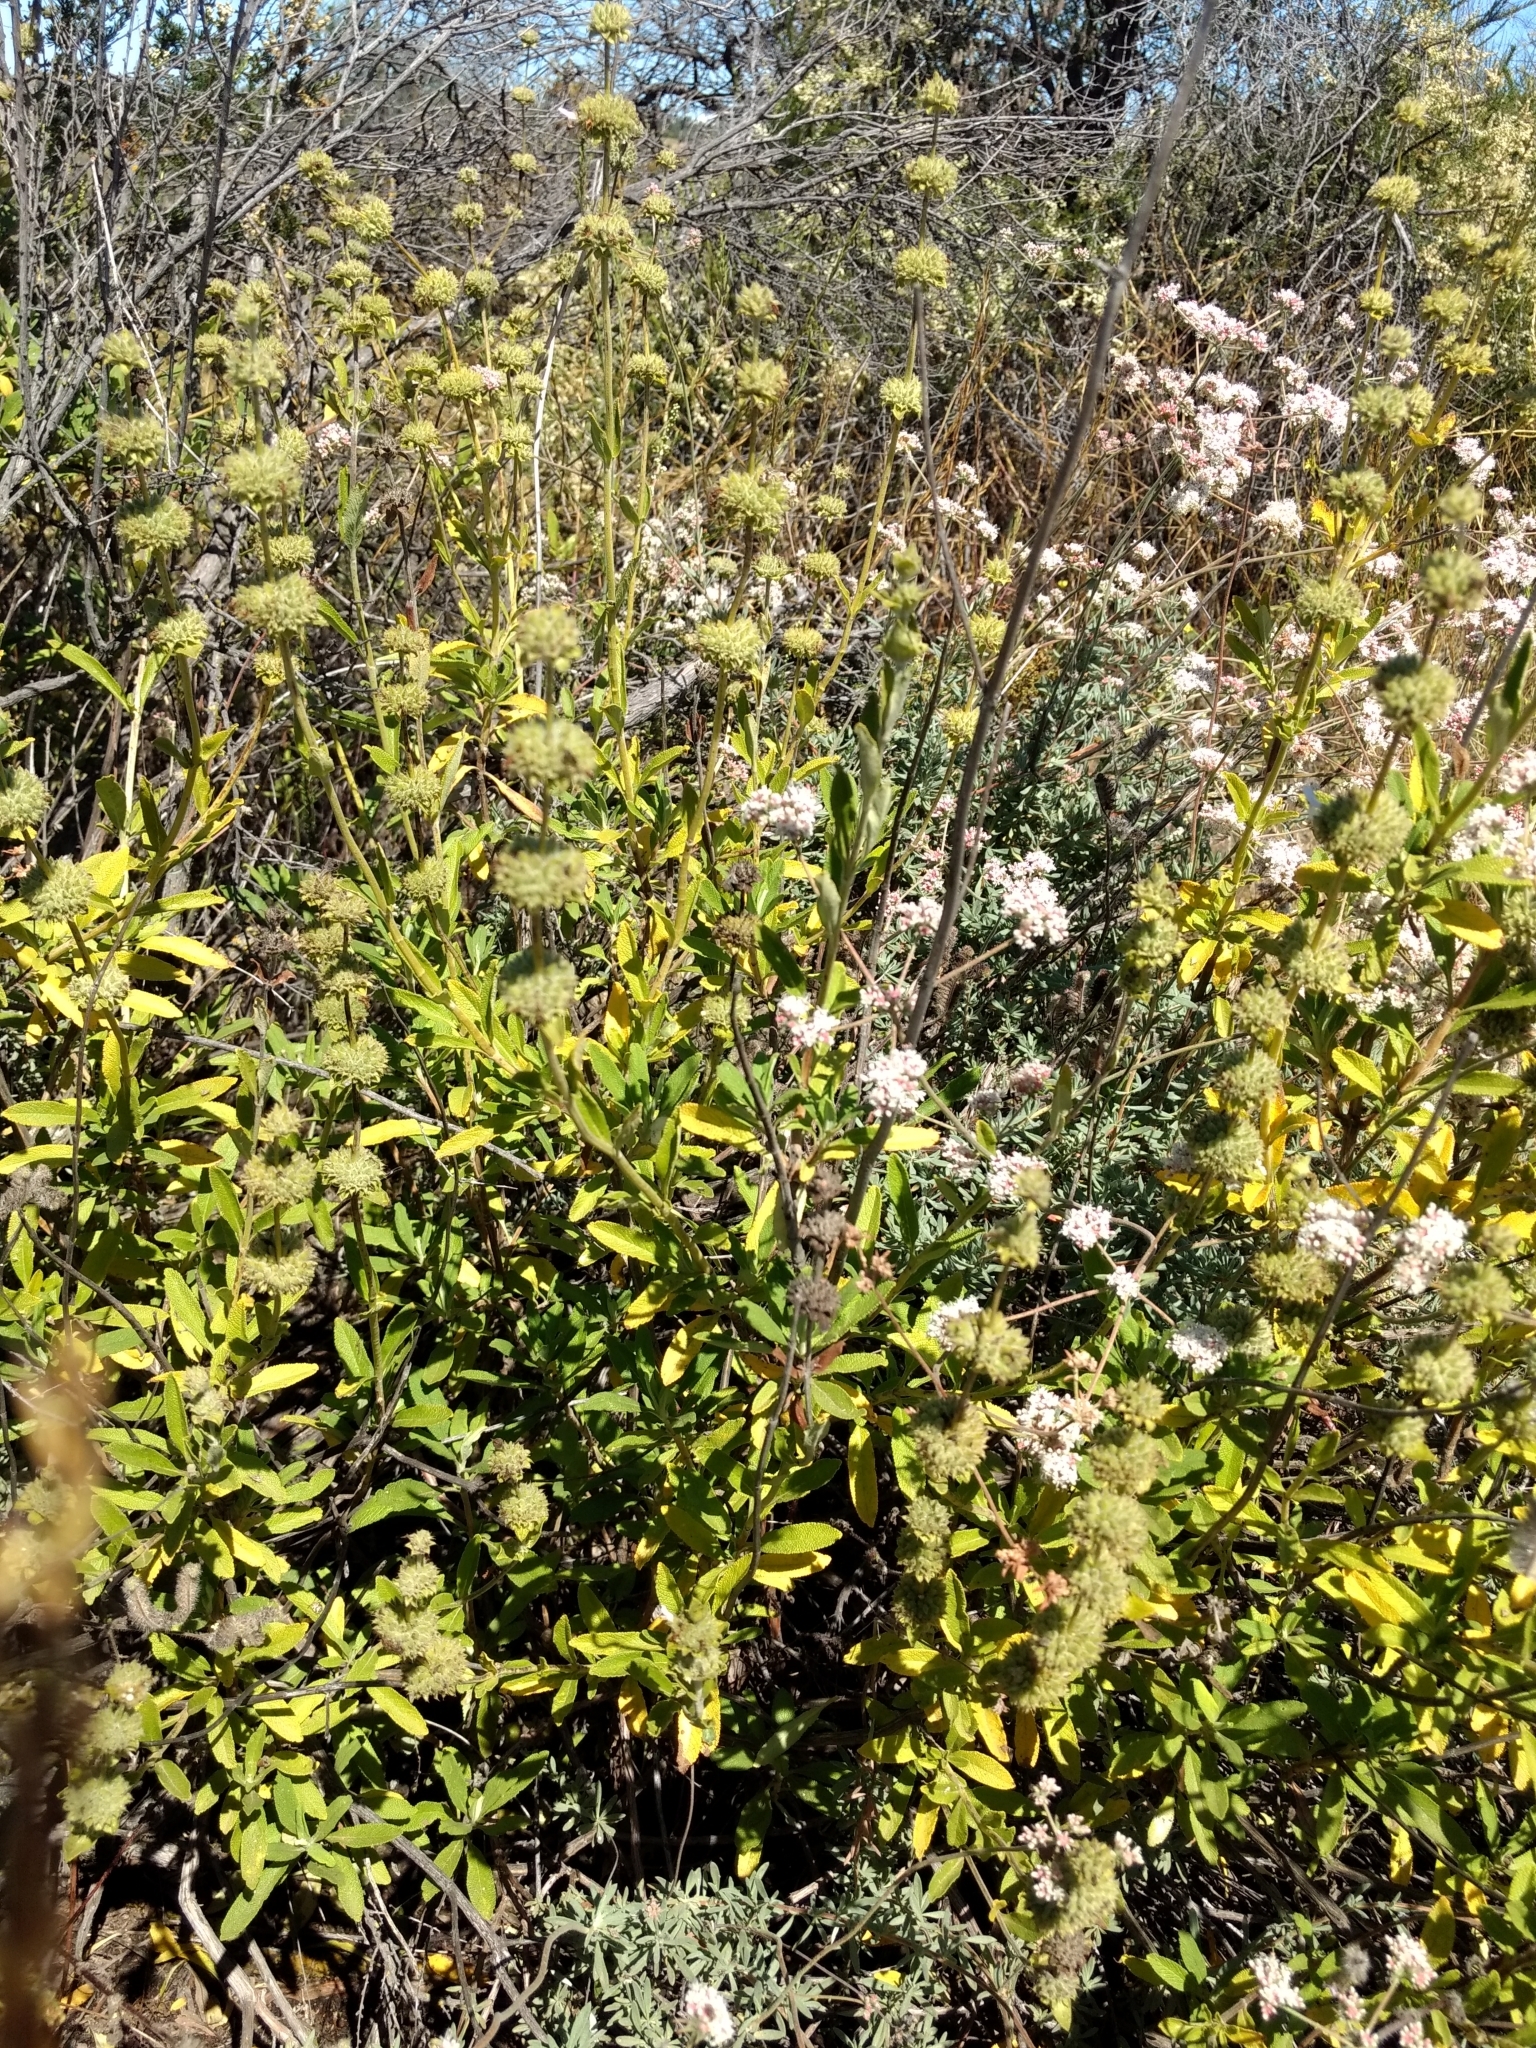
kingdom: Plantae
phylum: Tracheophyta
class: Magnoliopsida
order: Lamiales
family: Lamiaceae
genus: Salvia
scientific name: Salvia mellifera
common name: Black sage
